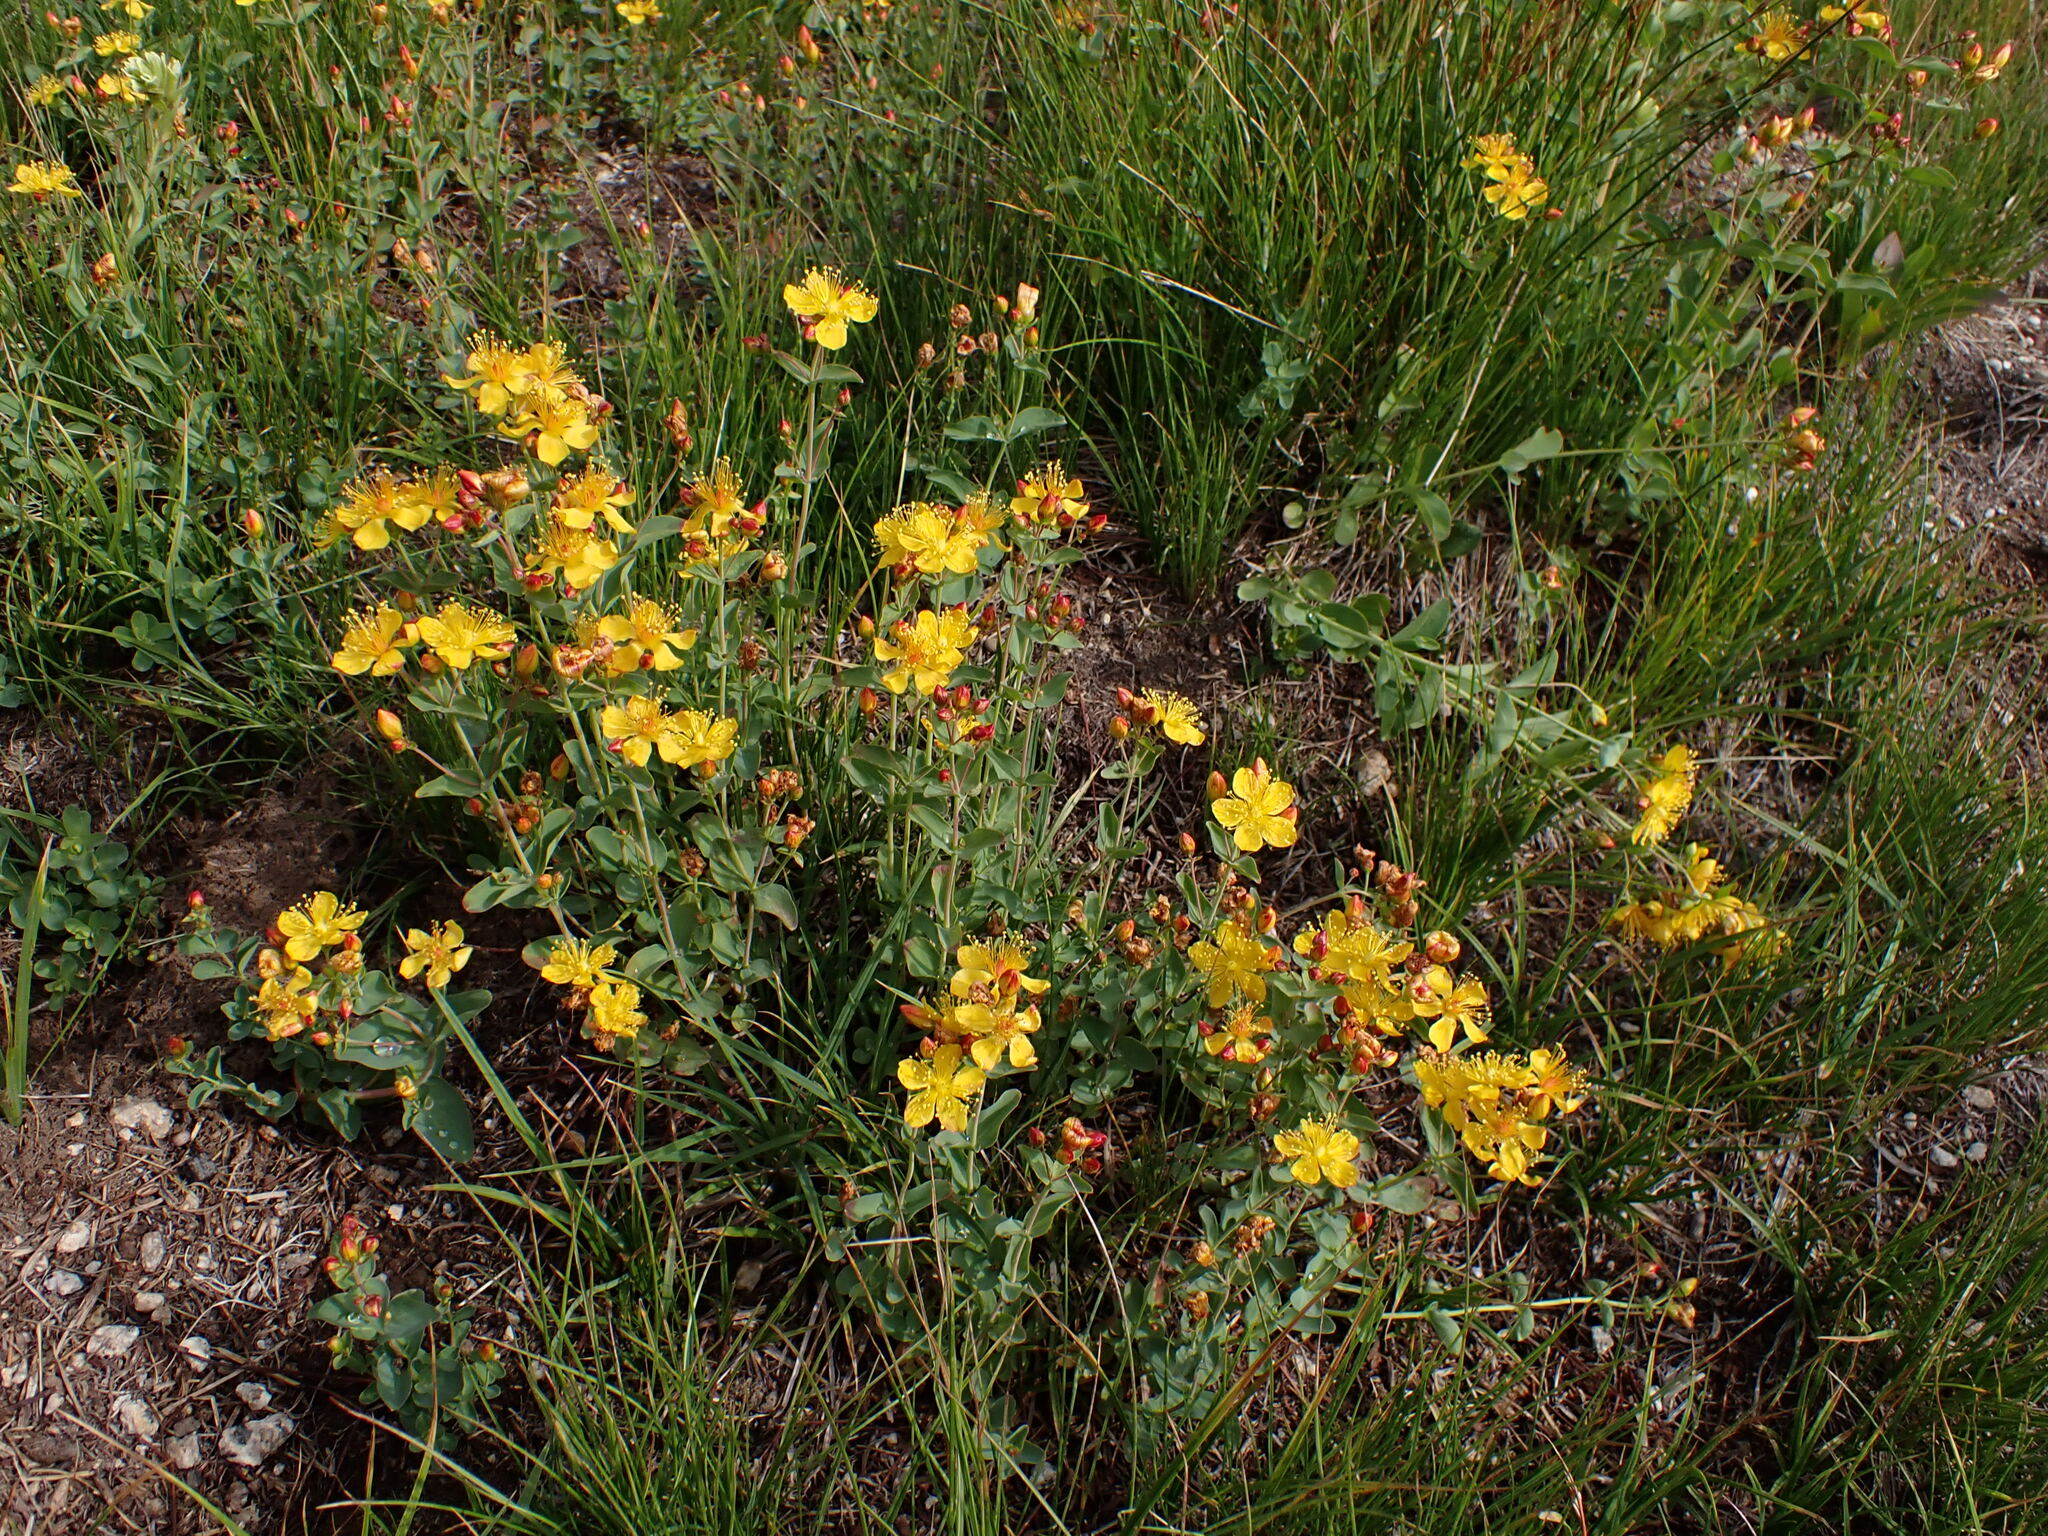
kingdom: Plantae
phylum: Tracheophyta
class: Magnoliopsida
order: Malpighiales
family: Hypericaceae
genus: Hypericum
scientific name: Hypericum scouleri
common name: Scouler's st. john's-wort
